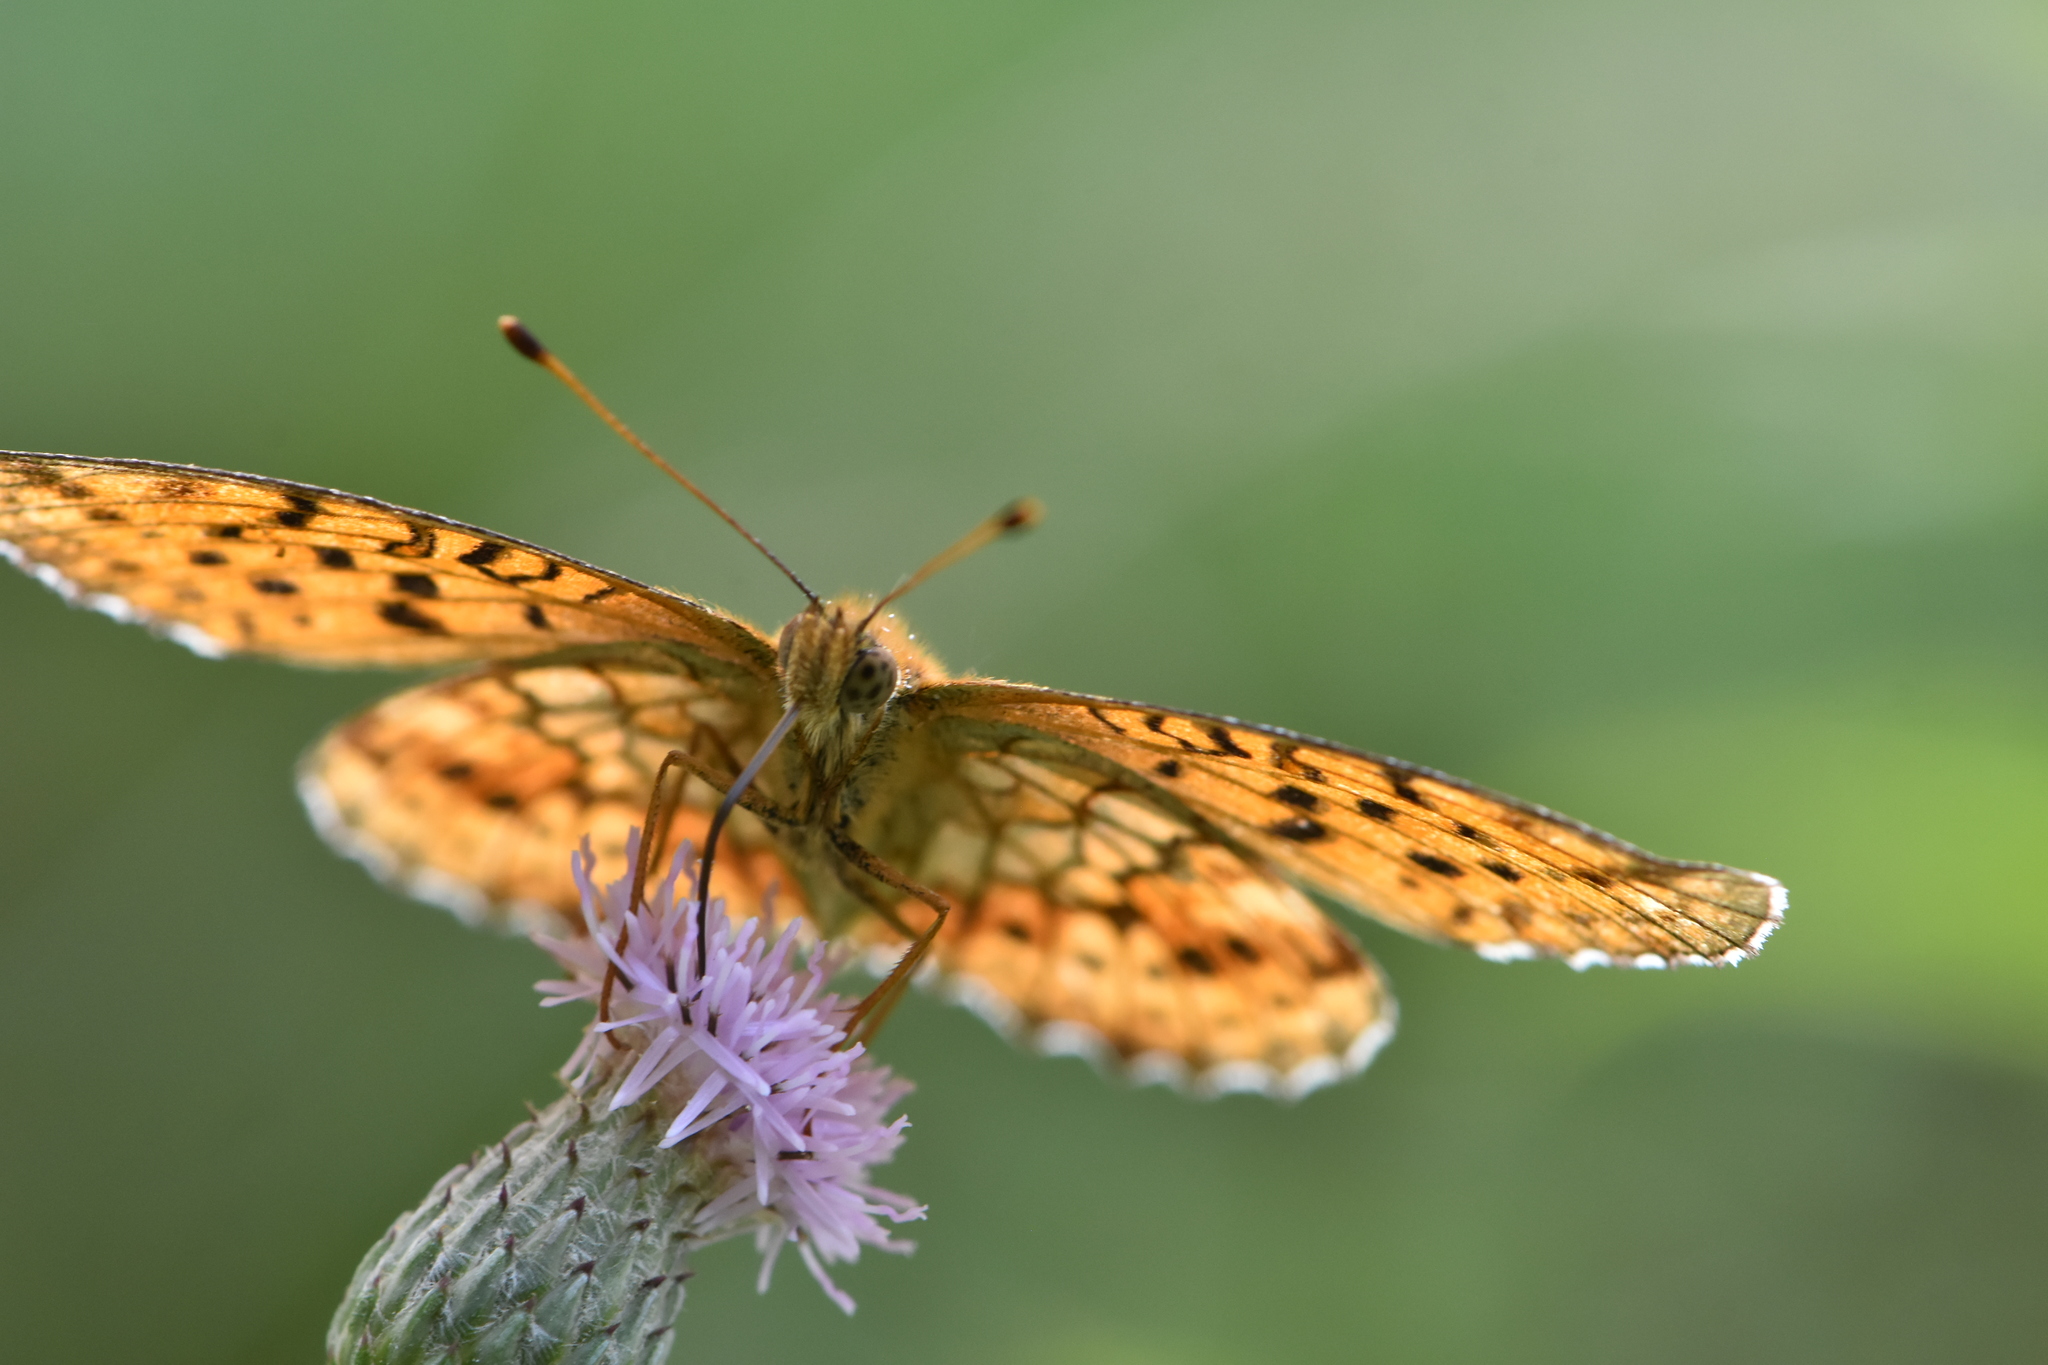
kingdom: Animalia
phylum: Arthropoda
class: Insecta
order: Lepidoptera
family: Nymphalidae
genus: Brenthis
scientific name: Brenthis ino
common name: Lesser marbled fritillary
